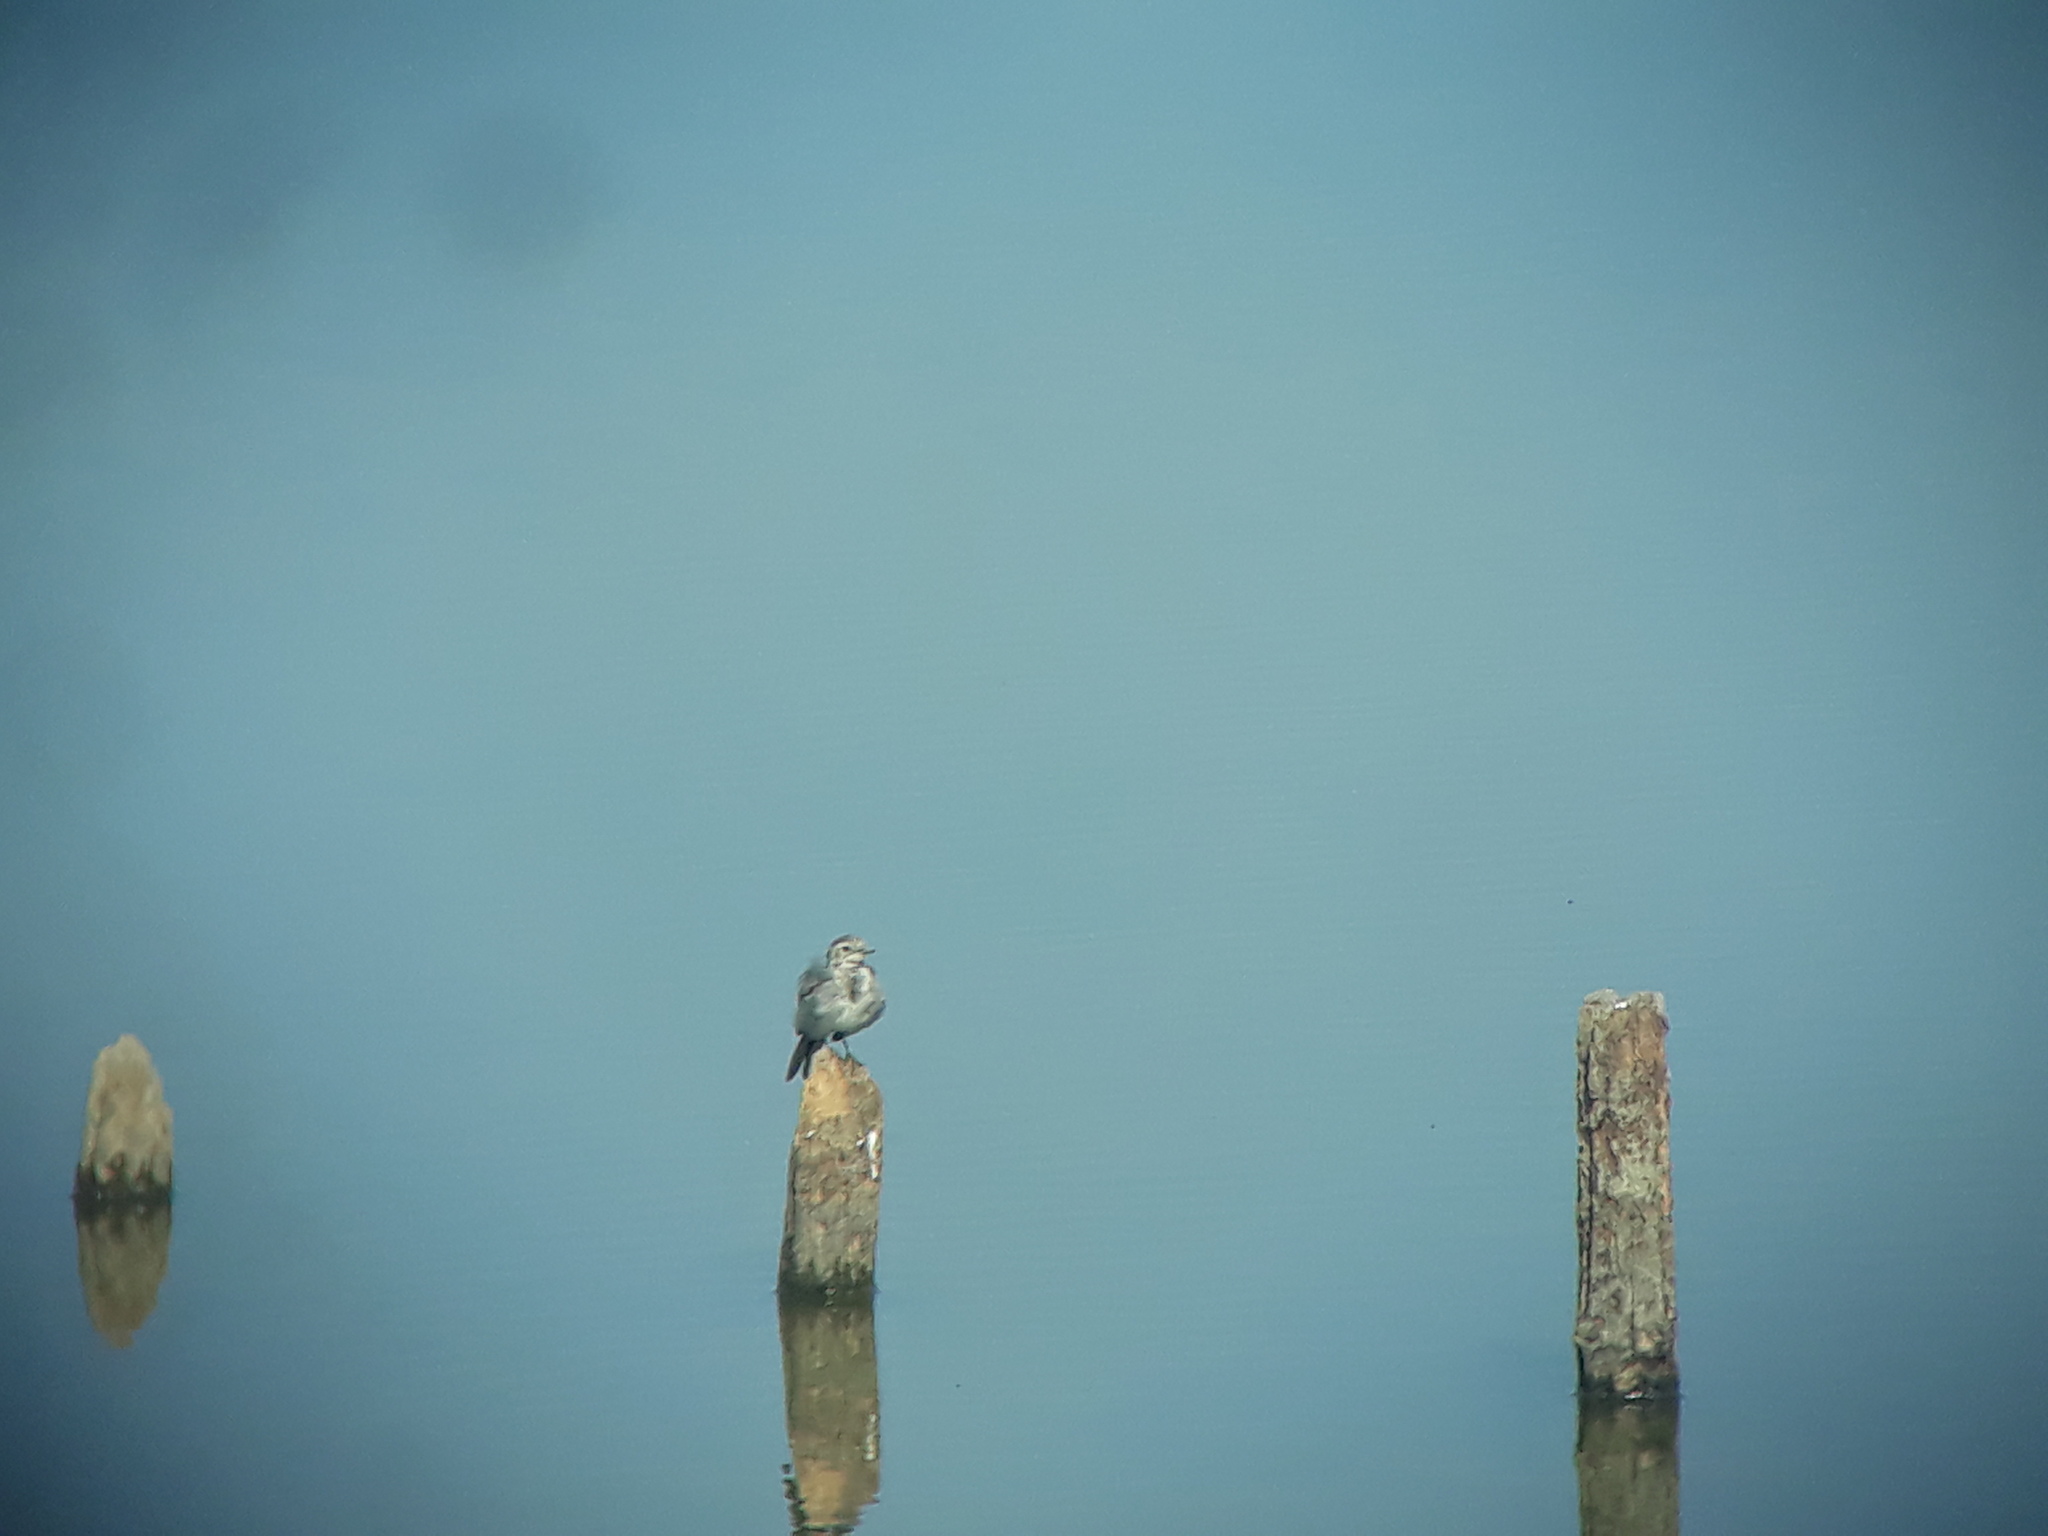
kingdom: Animalia
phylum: Chordata
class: Aves
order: Passeriformes
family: Motacillidae
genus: Motacilla
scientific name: Motacilla alba
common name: White wagtail
